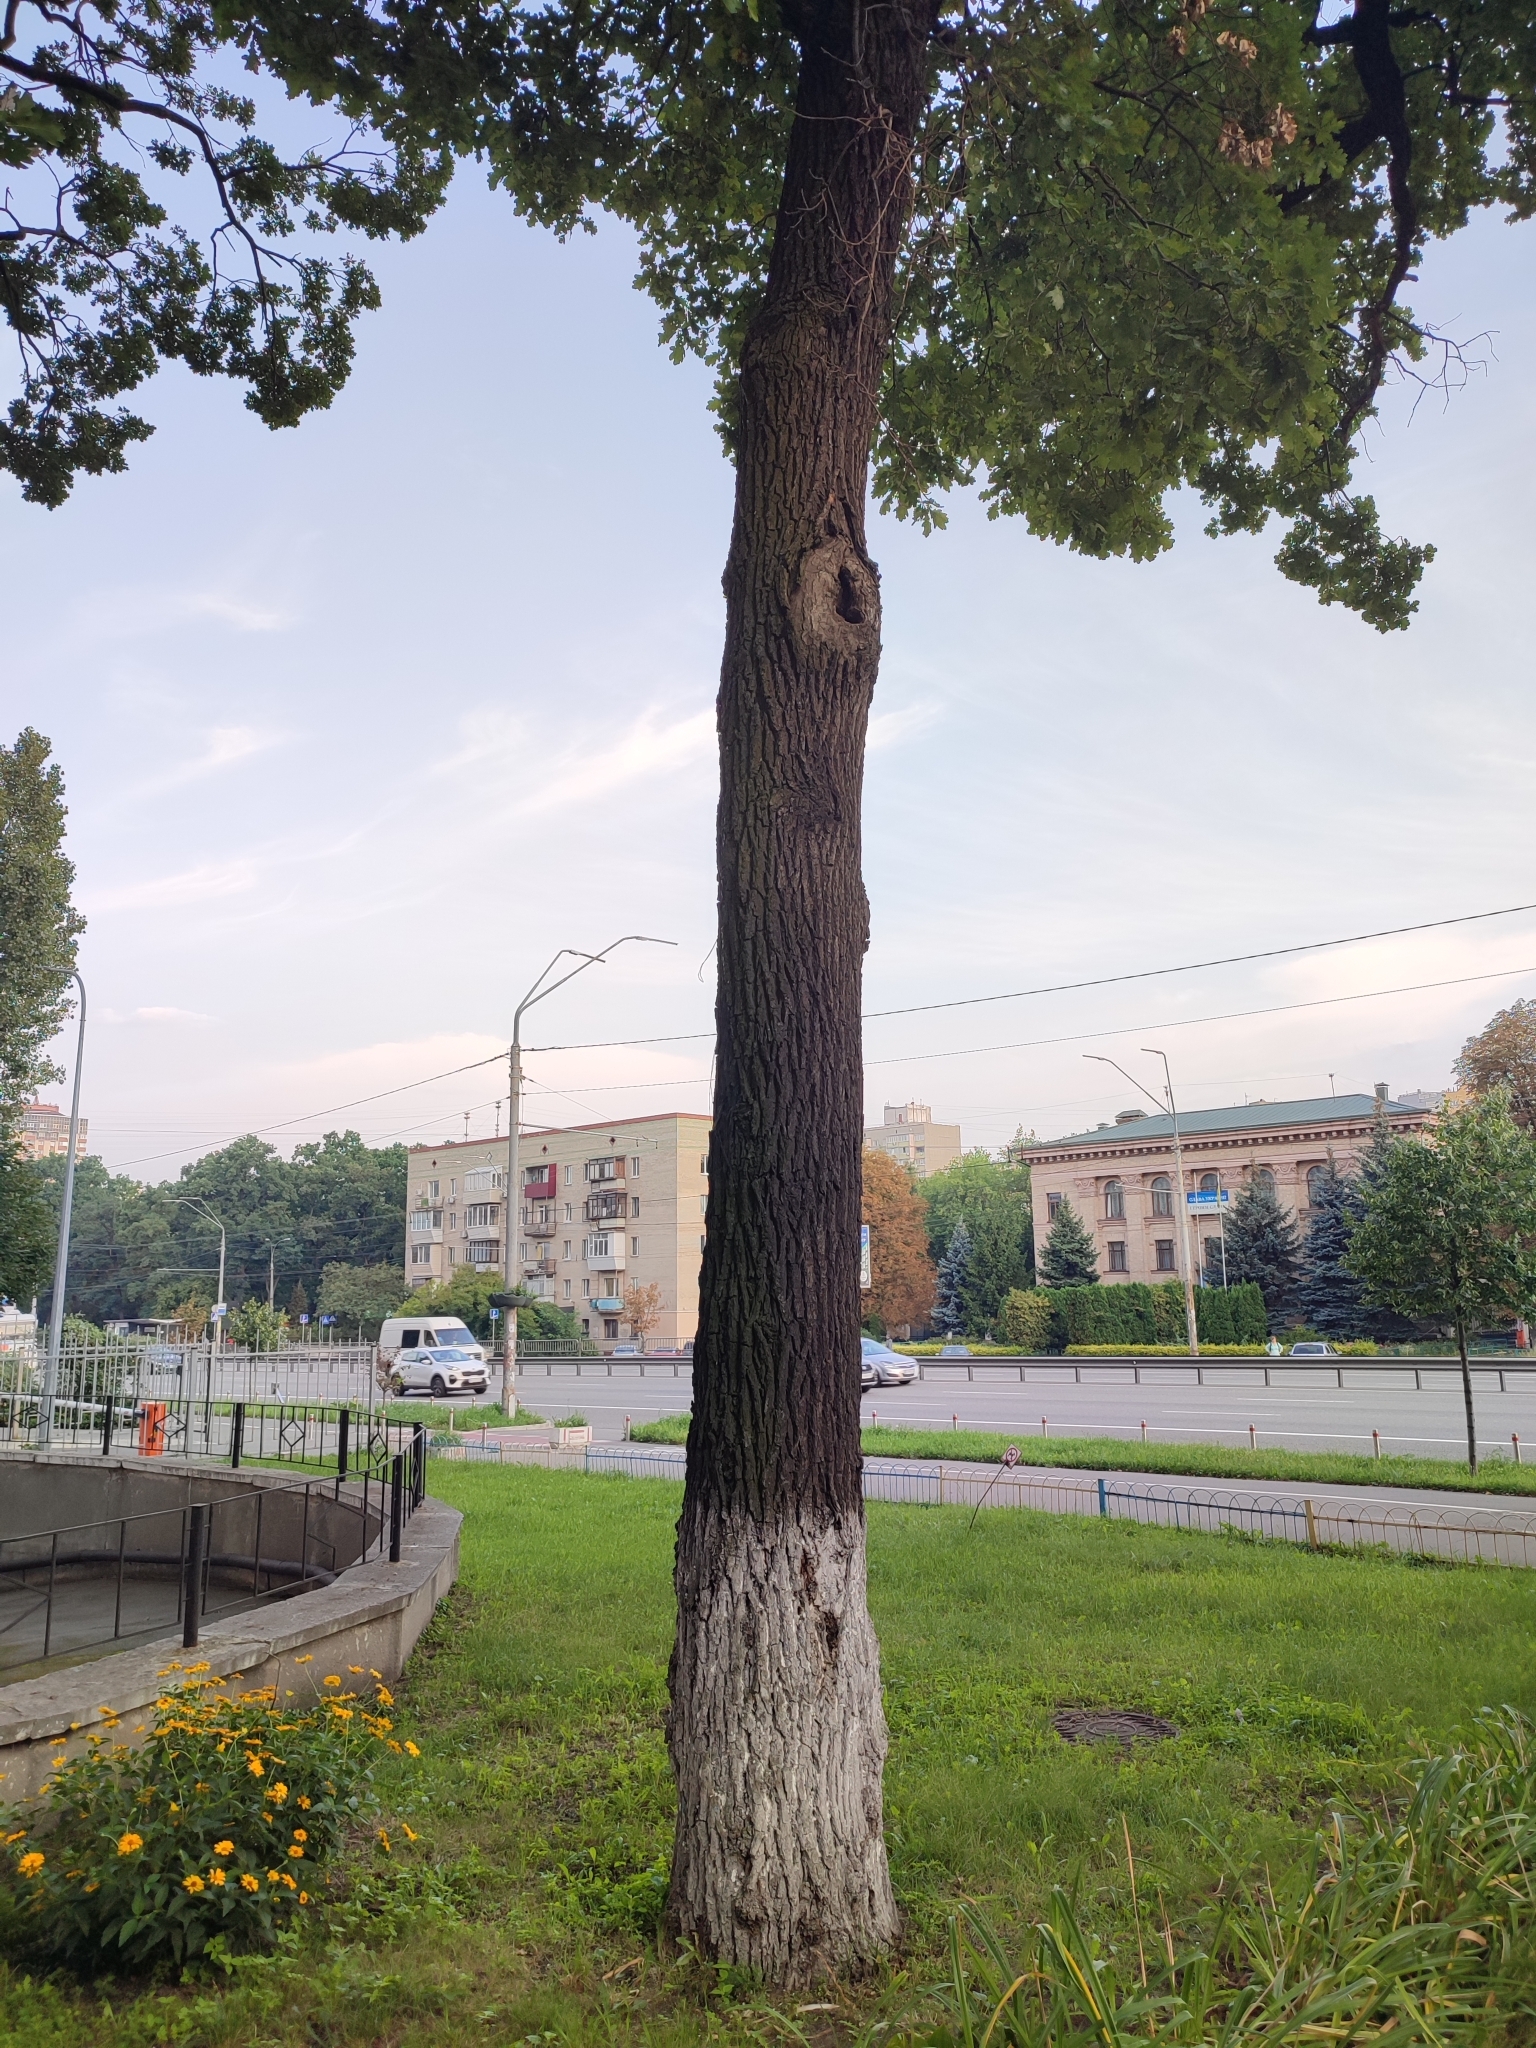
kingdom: Plantae
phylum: Tracheophyta
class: Magnoliopsida
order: Fagales
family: Fagaceae
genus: Quercus
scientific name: Quercus robur
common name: Pedunculate oak
